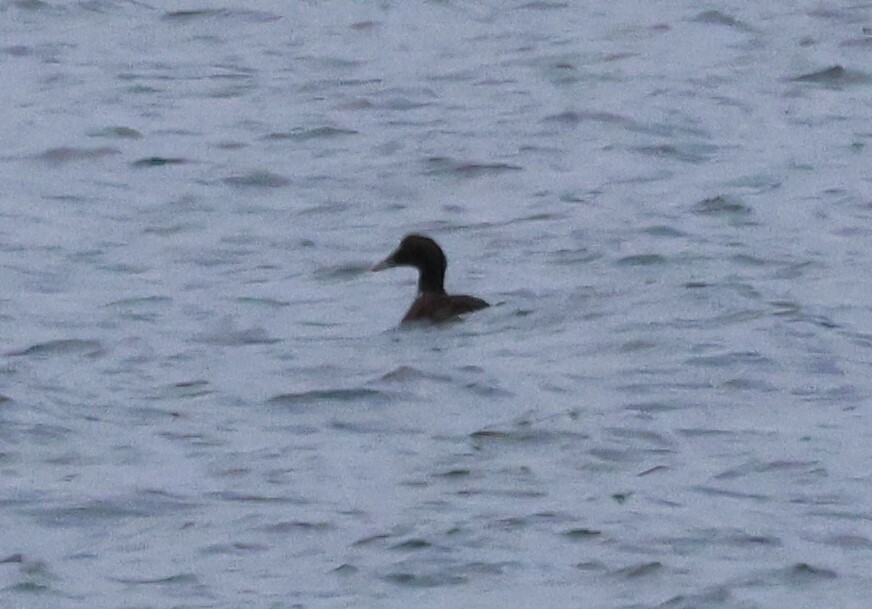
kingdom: Animalia
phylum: Chordata
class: Aves
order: Anseriformes
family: Anatidae
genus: Somateria
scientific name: Somateria mollissima
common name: Common eider
